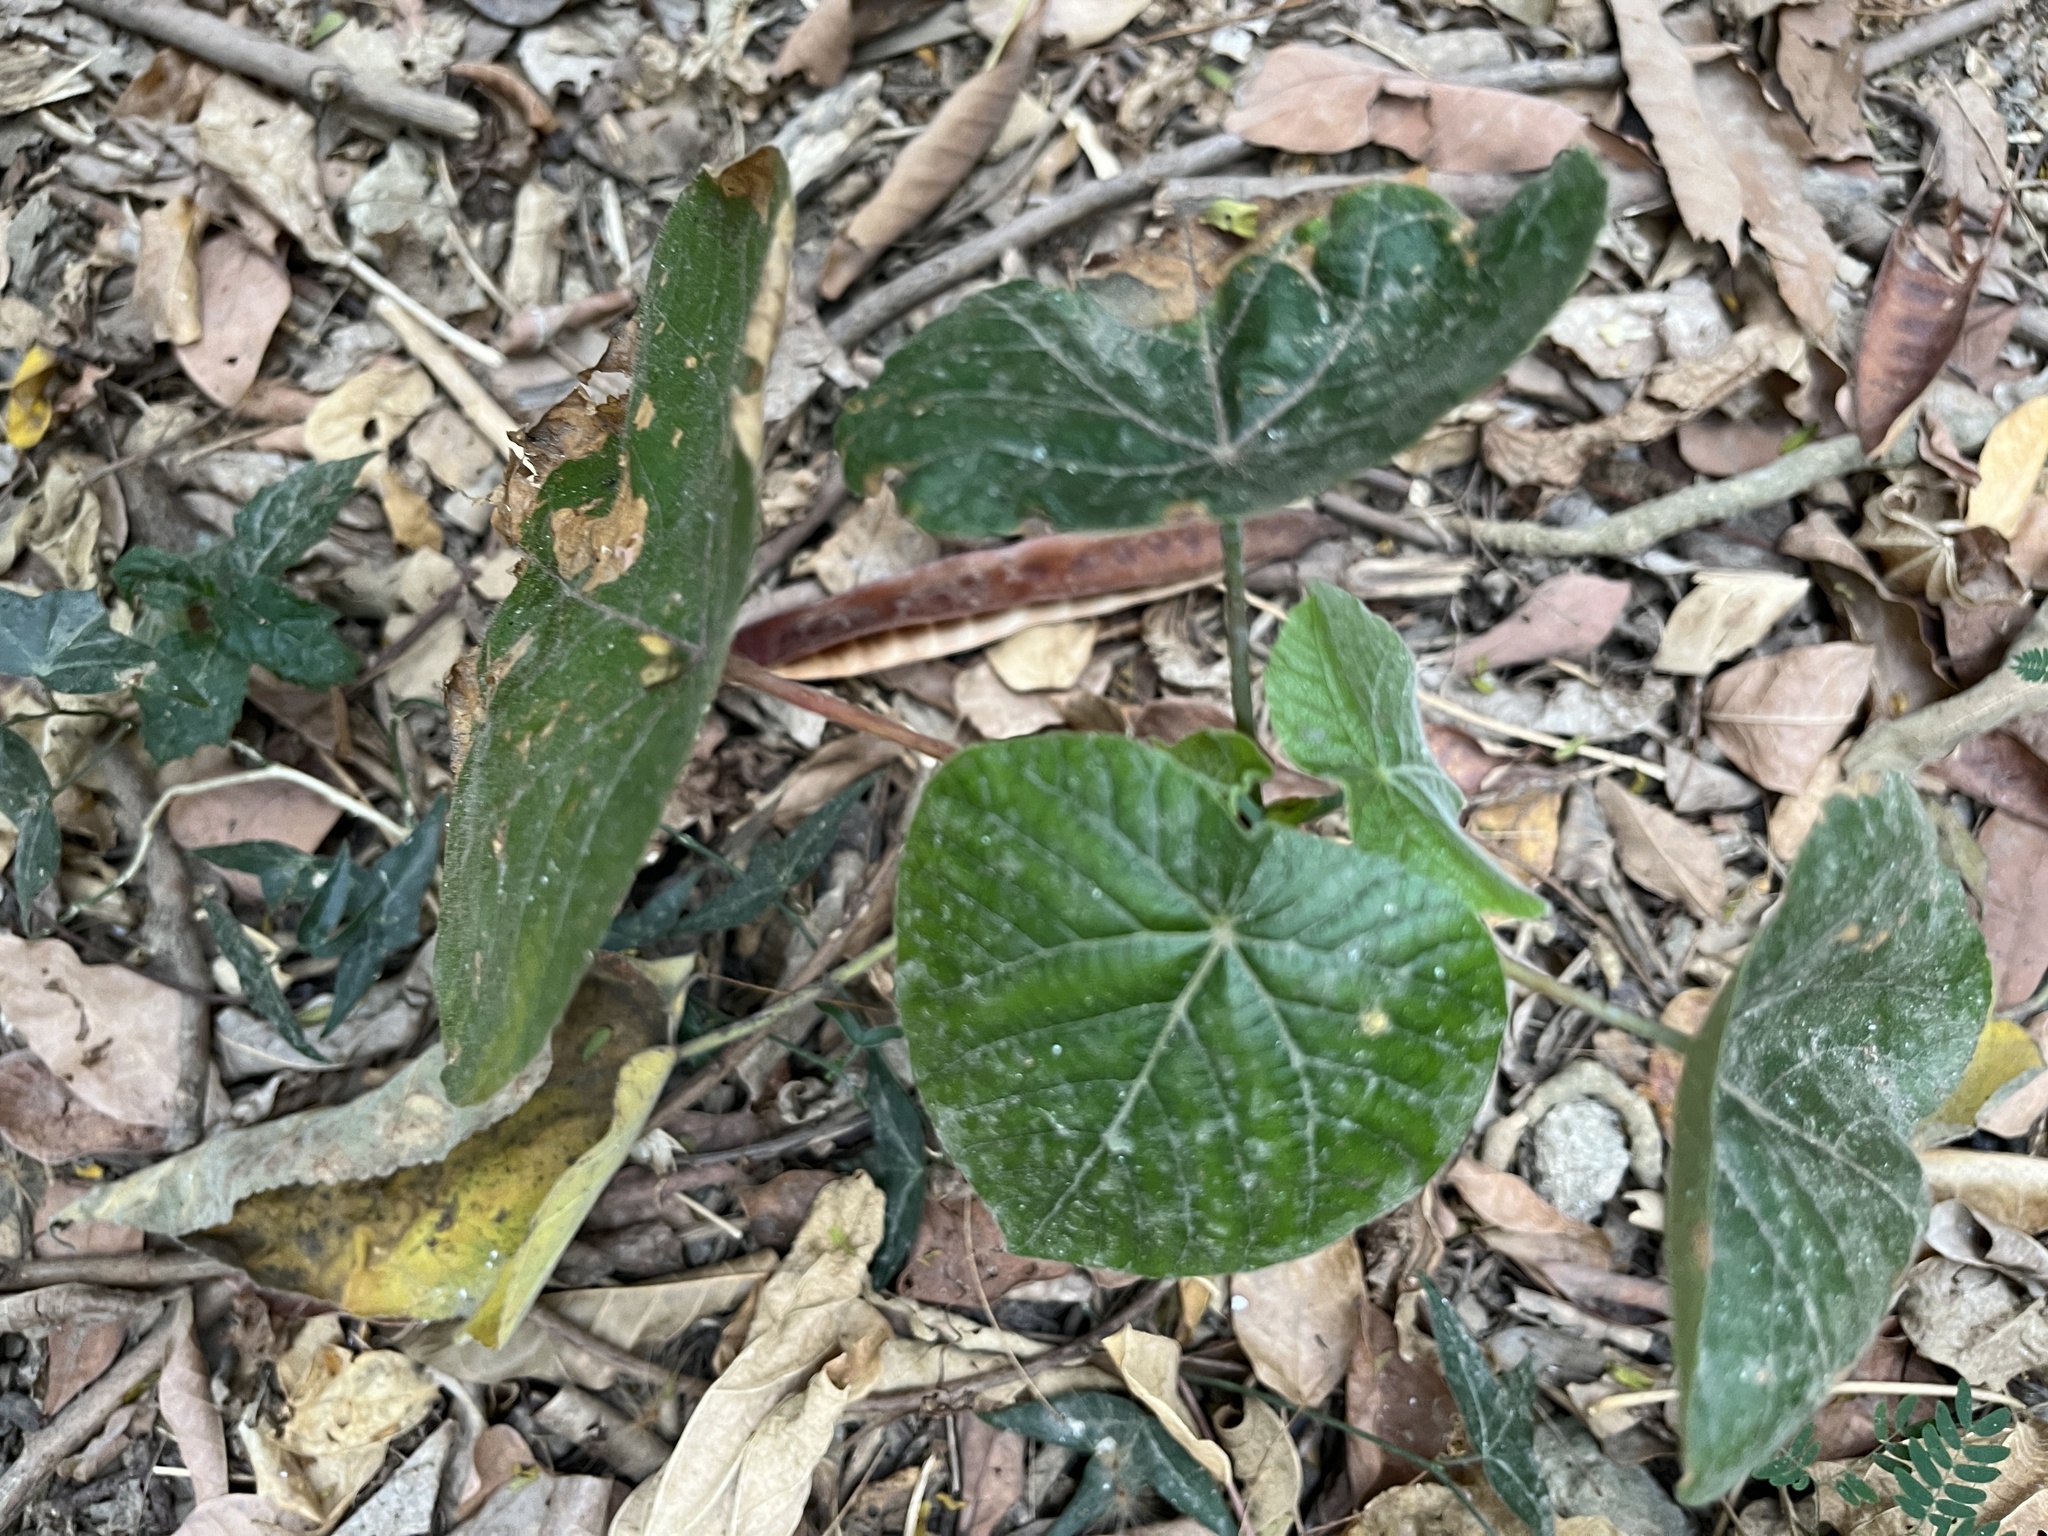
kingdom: Plantae
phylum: Tracheophyta
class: Magnoliopsida
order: Malpighiales
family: Euphorbiaceae
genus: Macaranga
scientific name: Macaranga tanarius
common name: Parasol leaf tree
